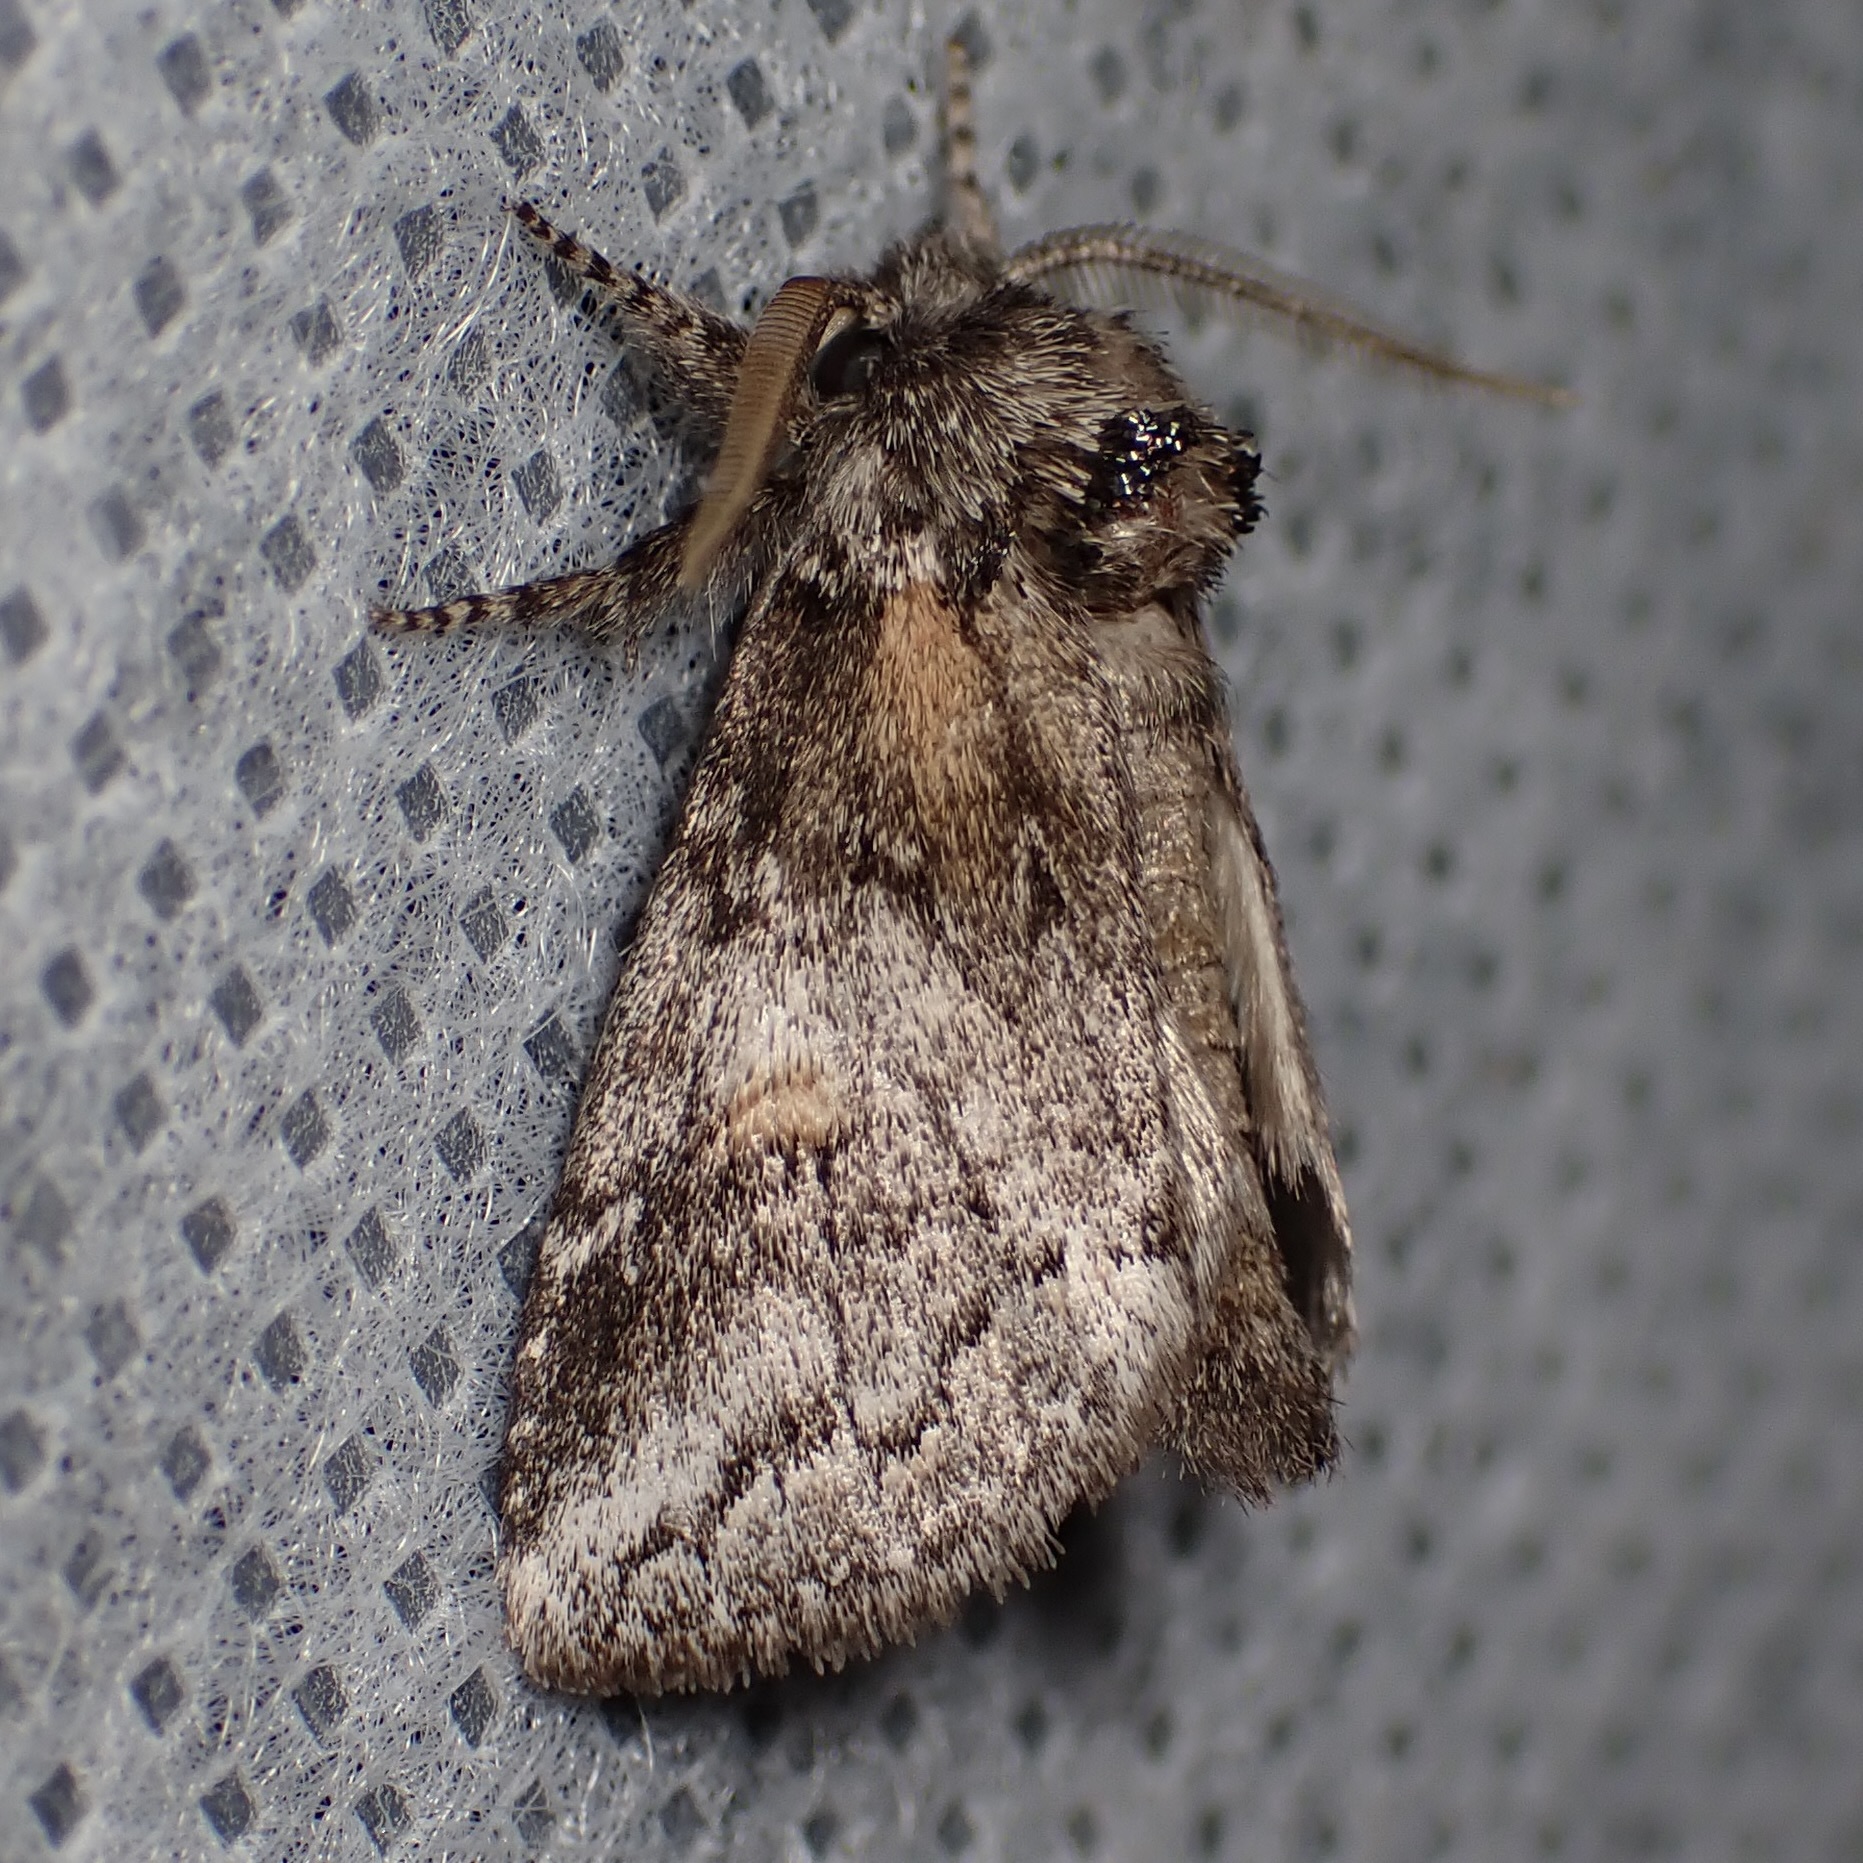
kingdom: Animalia
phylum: Arthropoda
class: Insecta
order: Lepidoptera
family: Notodontidae
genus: Kalkoma
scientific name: Kalkoma zapata
